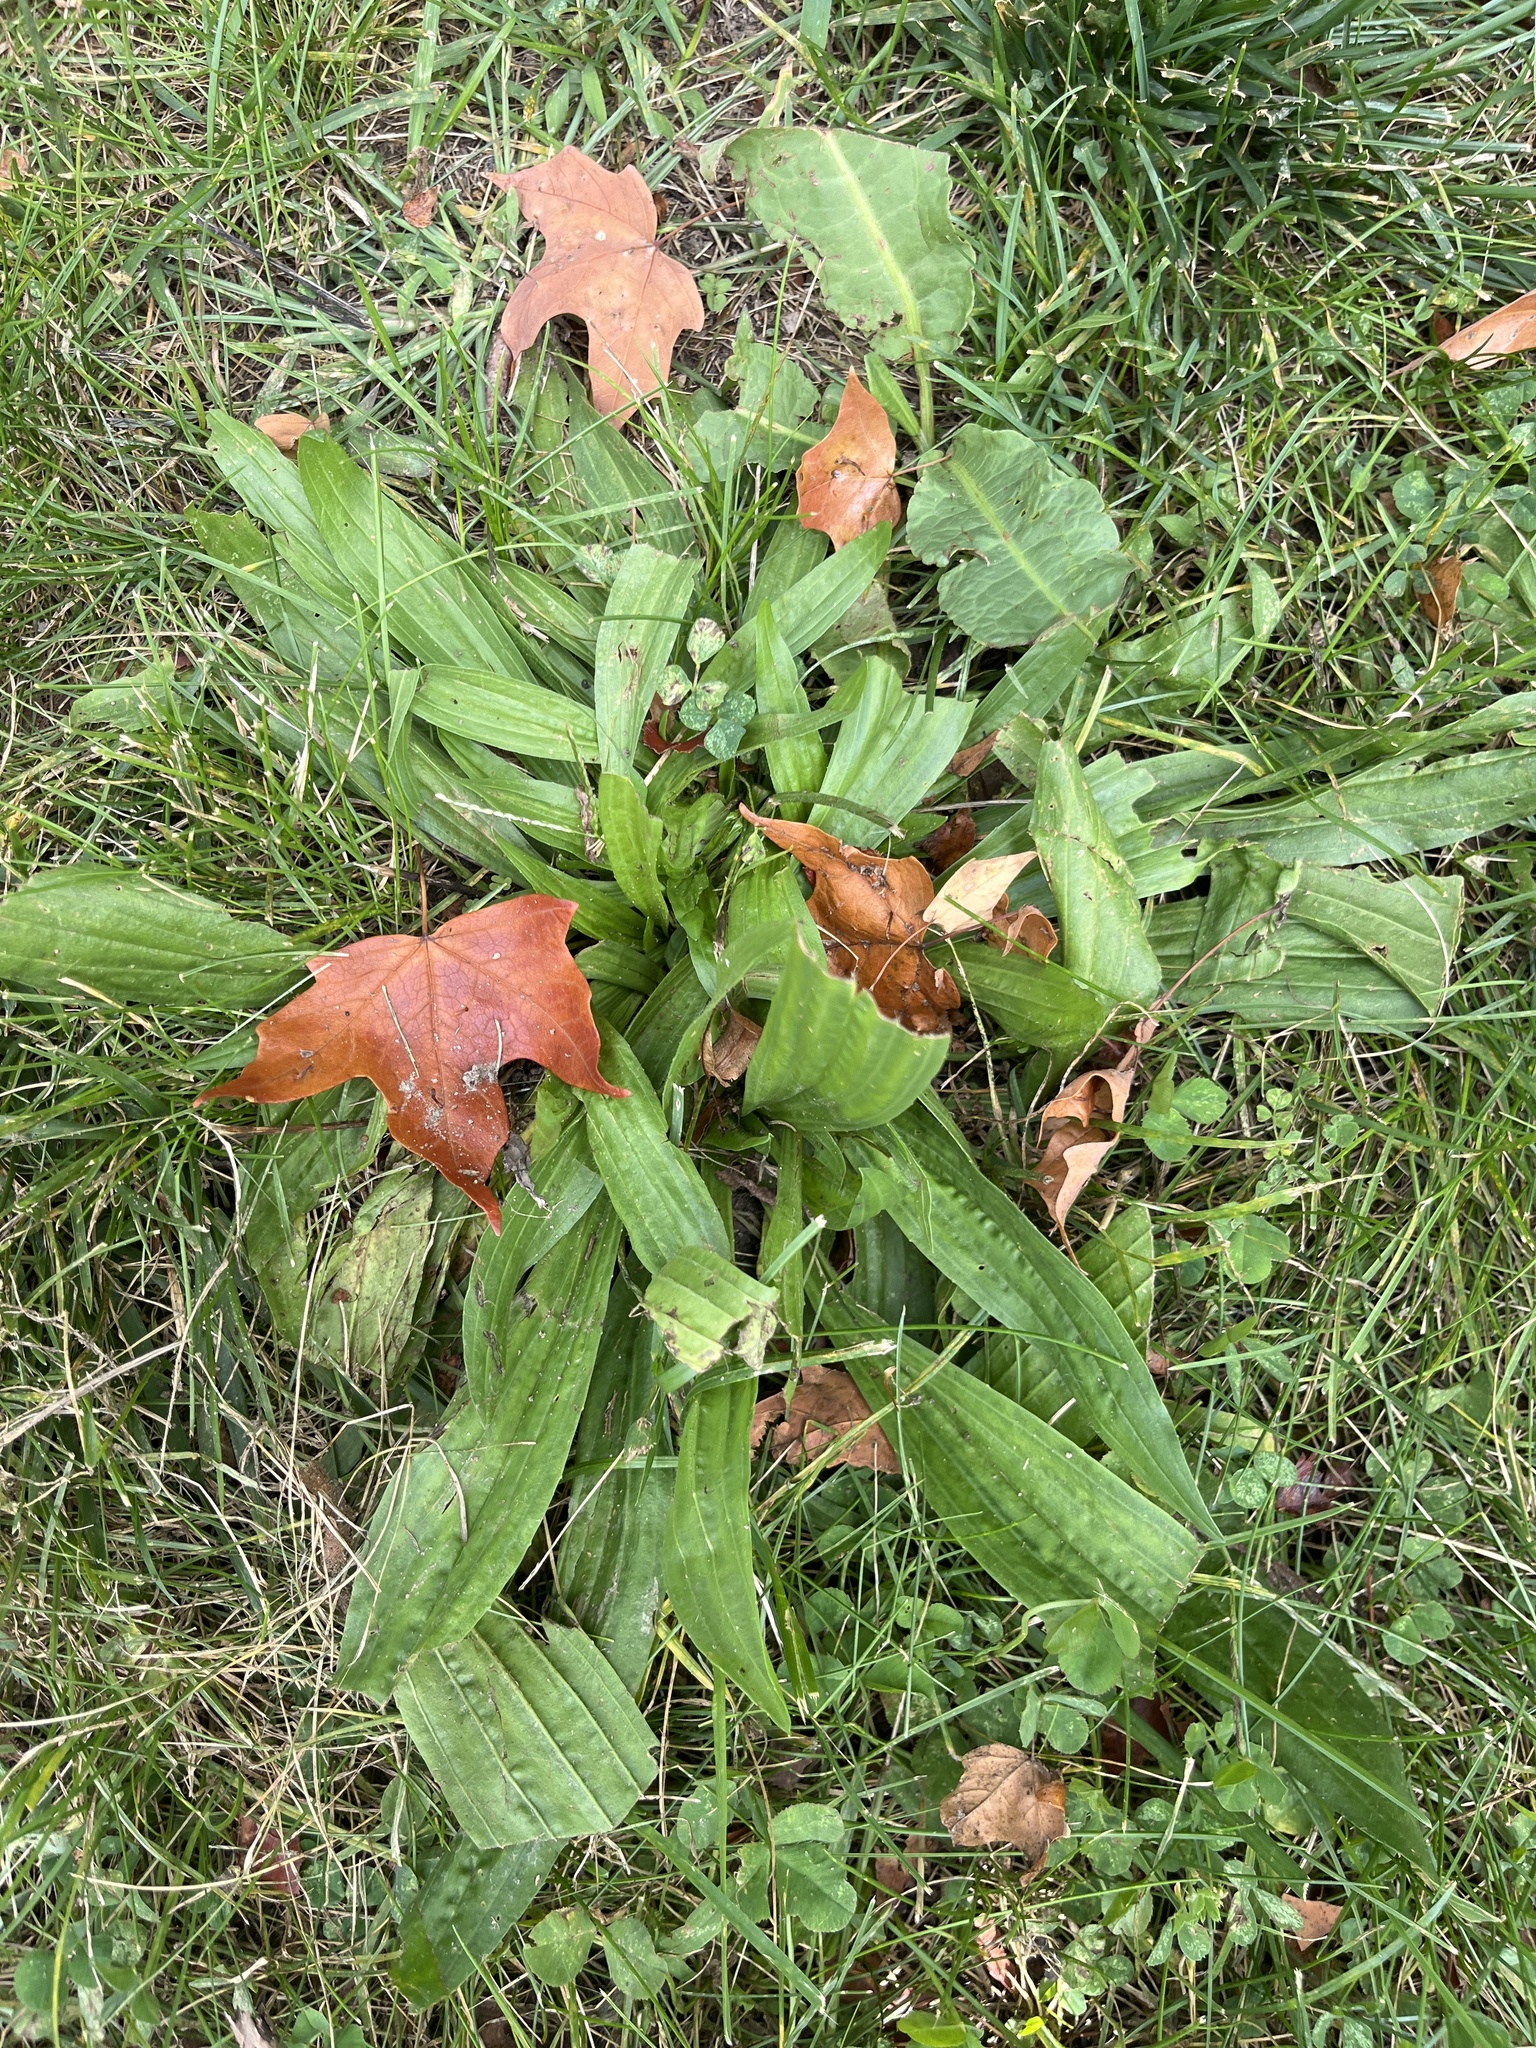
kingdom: Plantae
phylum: Tracheophyta
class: Magnoliopsida
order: Lamiales
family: Plantaginaceae
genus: Plantago
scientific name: Plantago lanceolata
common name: Ribwort plantain
